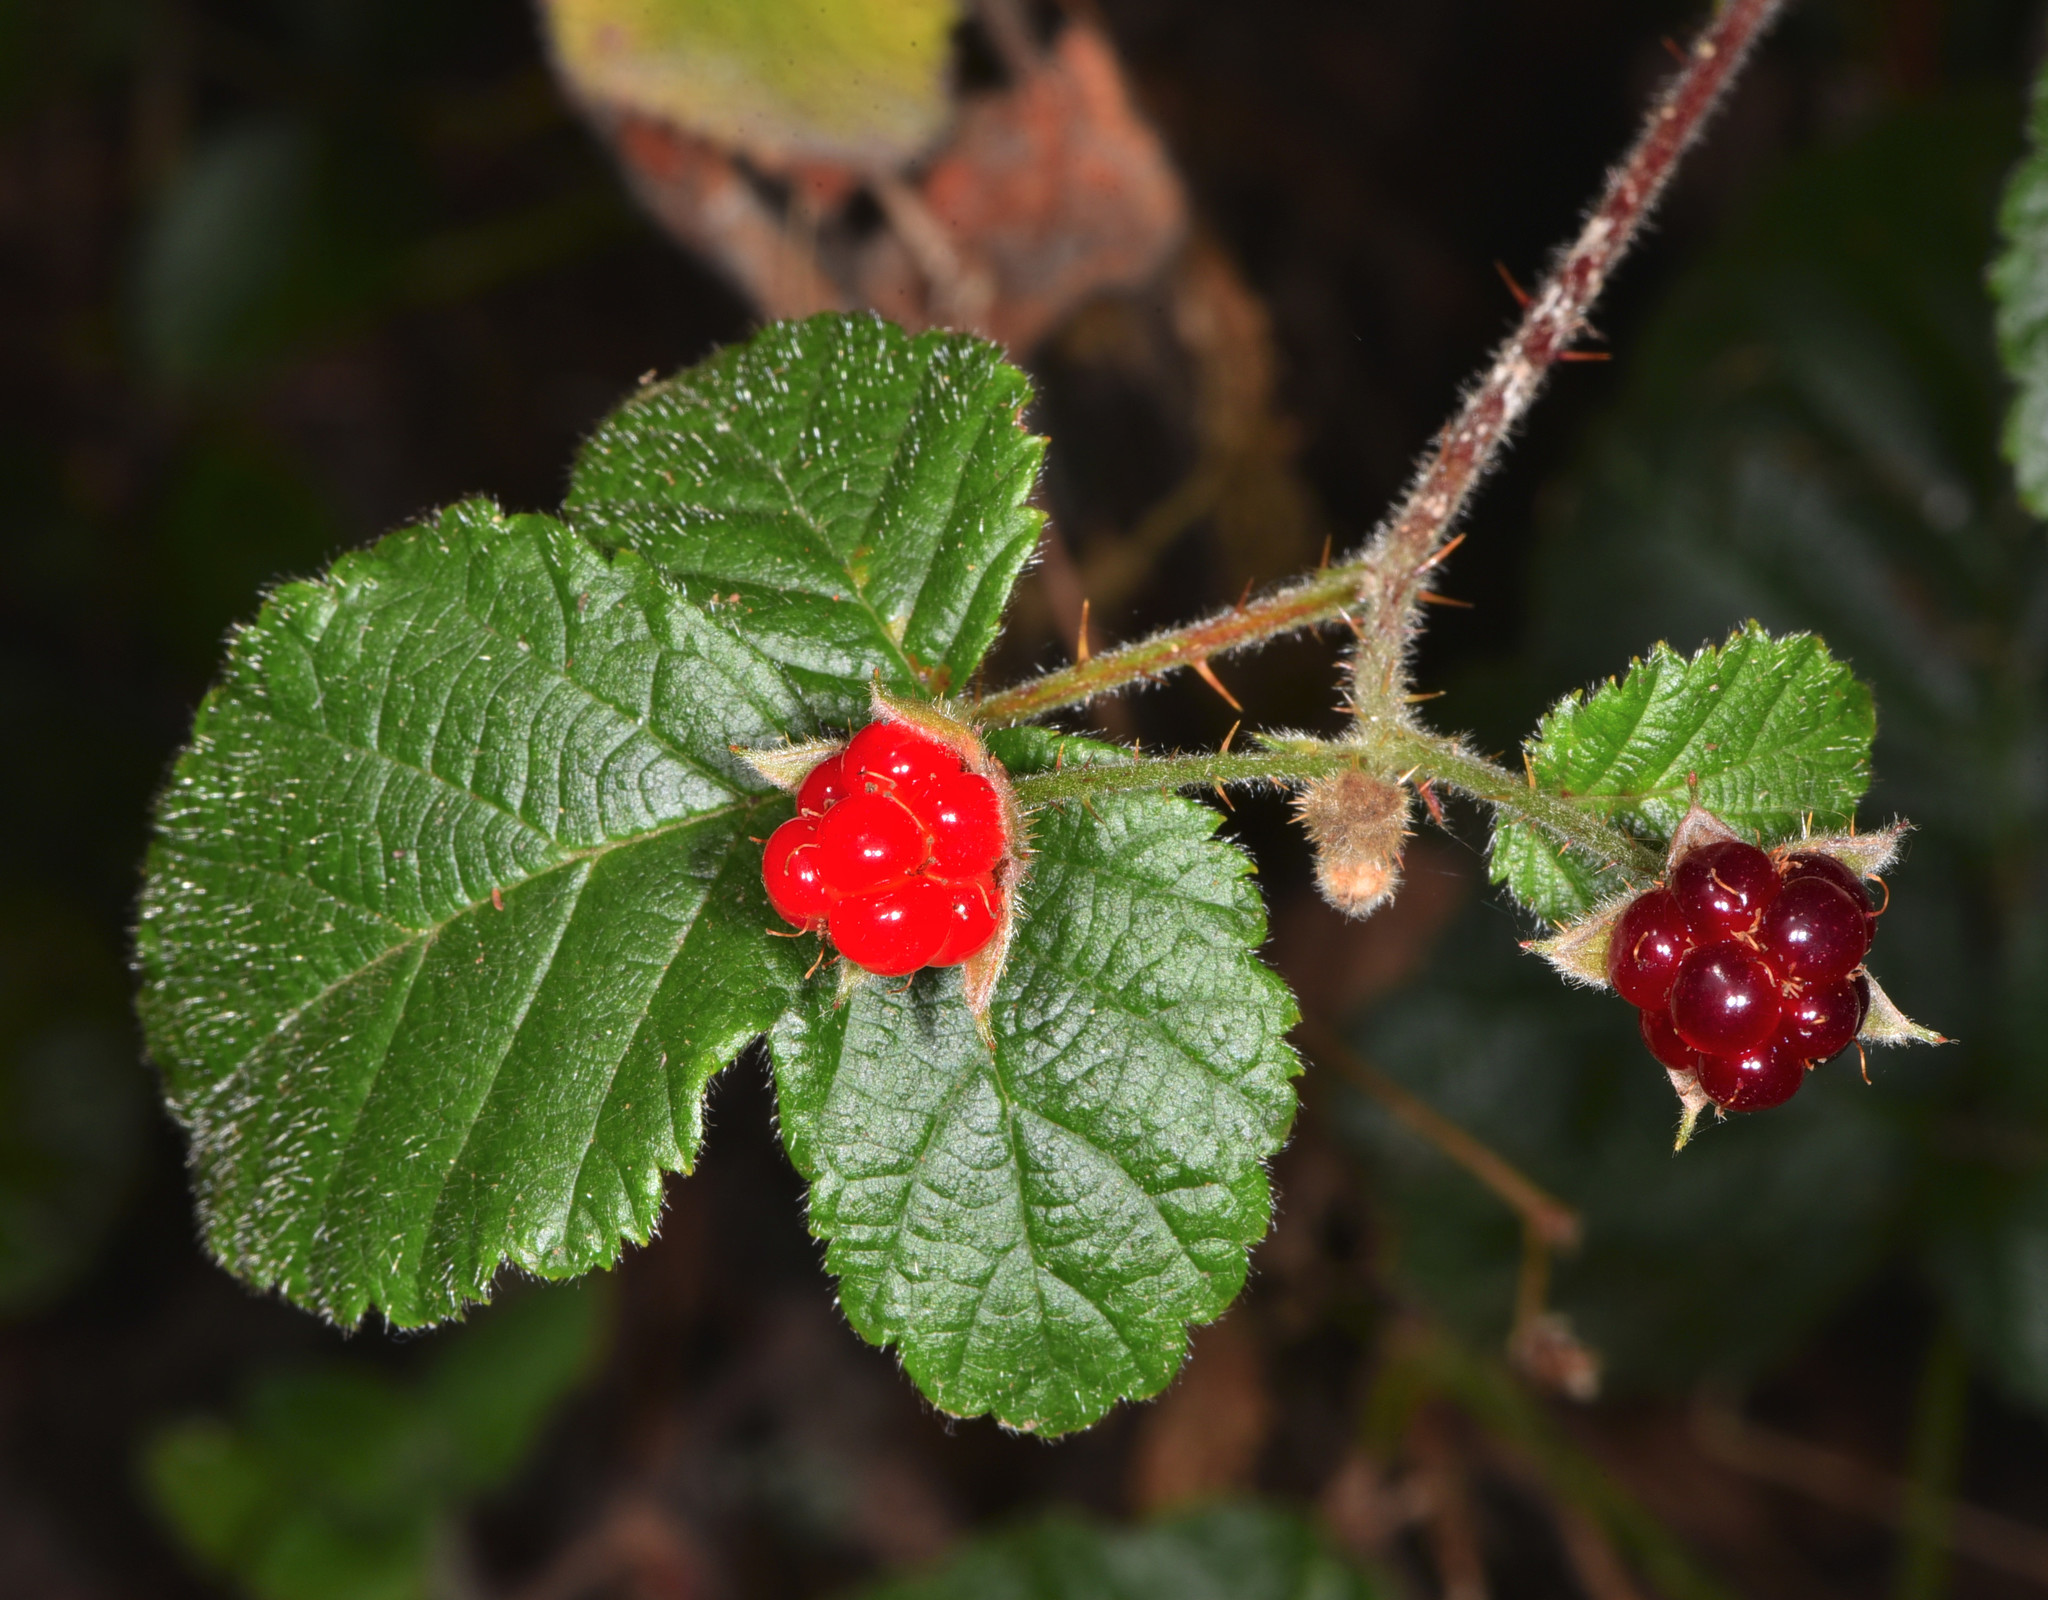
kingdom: Plantae
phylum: Tracheophyta
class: Magnoliopsida
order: Rosales
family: Rosaceae
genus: Rubus
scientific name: Rubus ursinus
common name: Pacific blackberry
